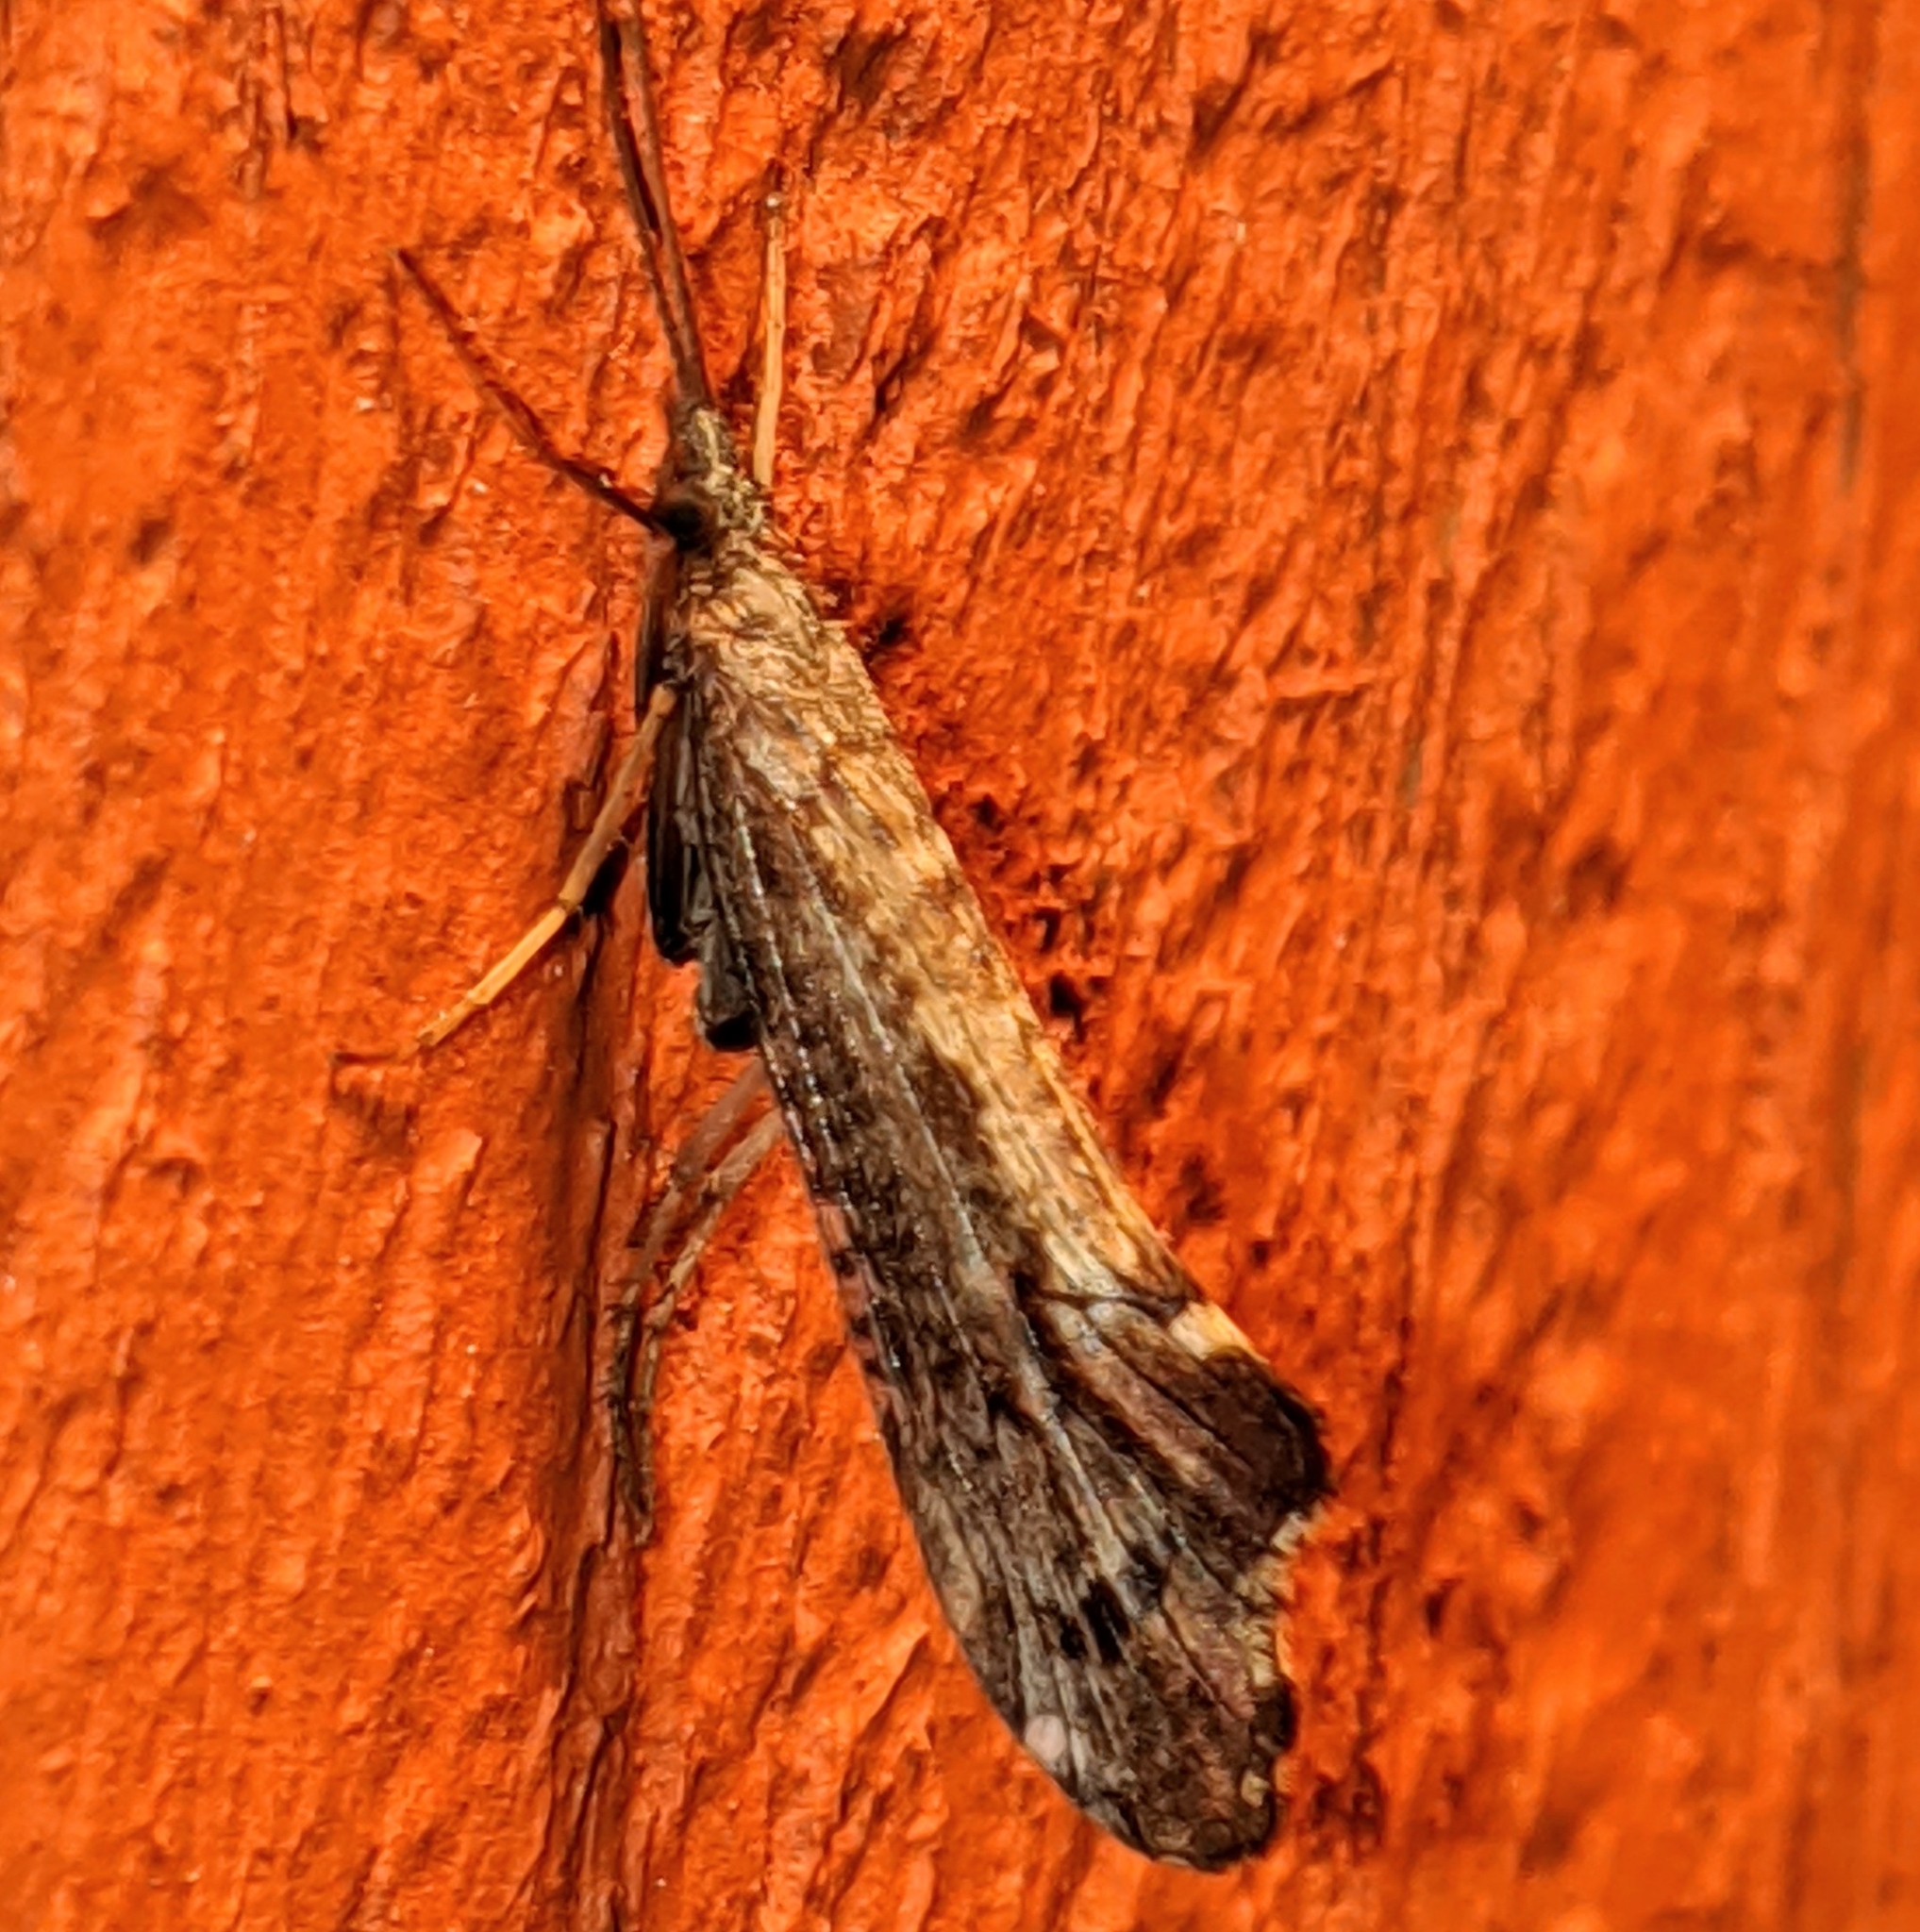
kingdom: Animalia
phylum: Arthropoda
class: Insecta
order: Trichoptera
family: Uenoidae
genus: Neophylax
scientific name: Neophylax splendens
